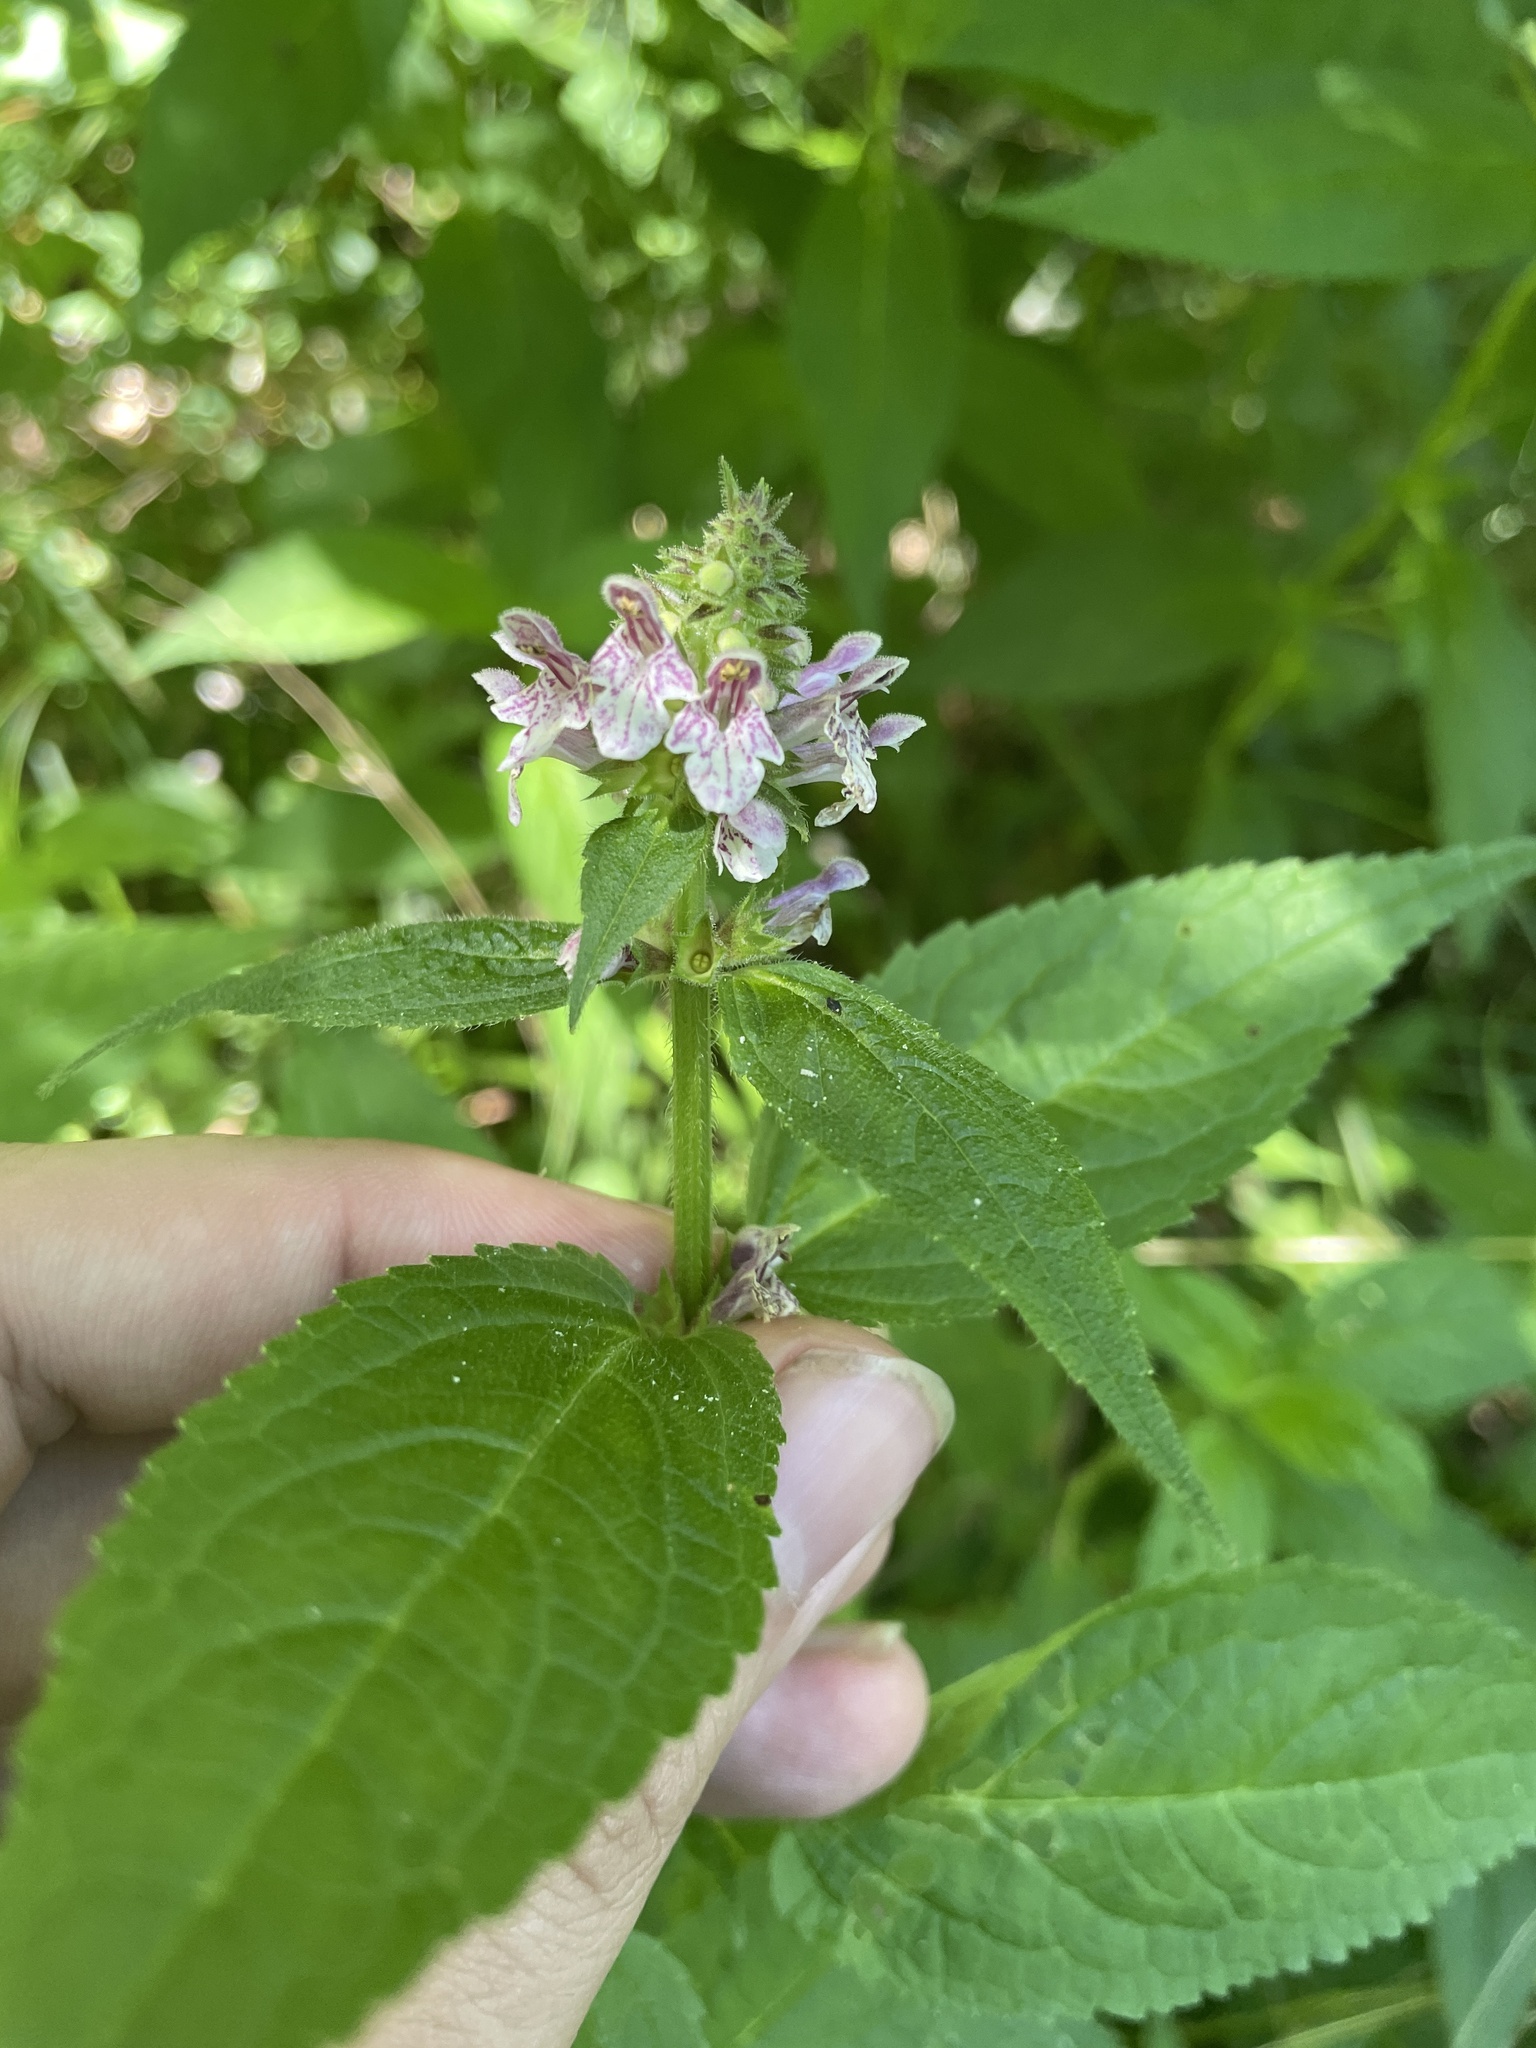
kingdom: Plantae
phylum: Tracheophyta
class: Magnoliopsida
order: Lamiales
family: Lamiaceae
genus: Stachys
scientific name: Stachys clingmanii
